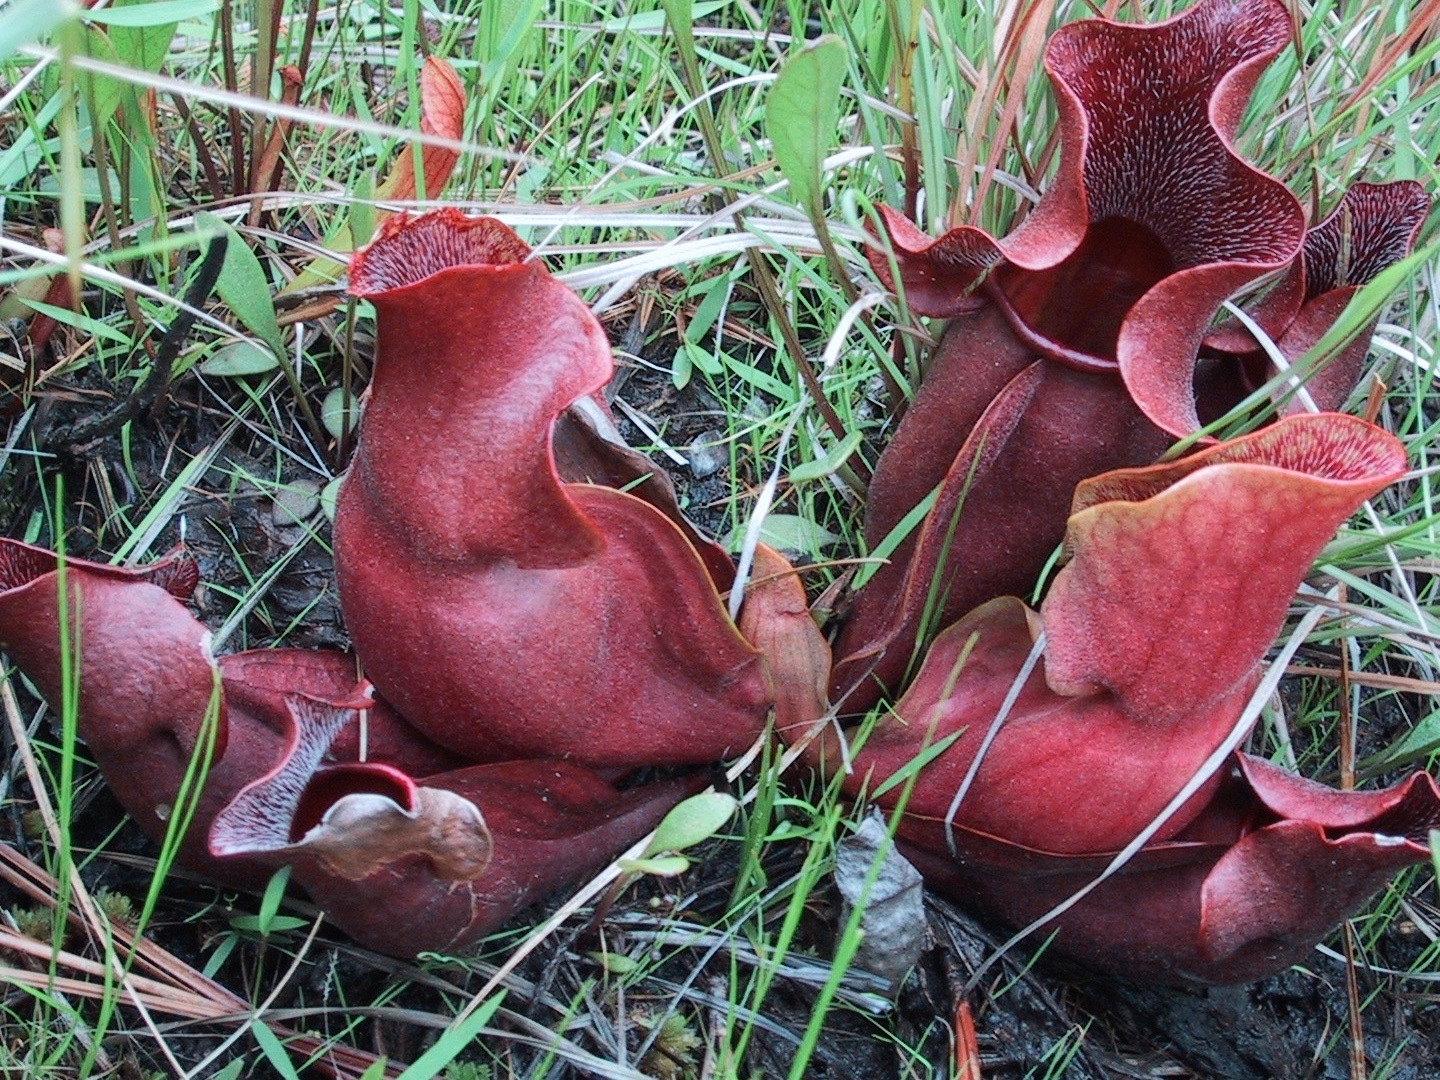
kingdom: Plantae
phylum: Tracheophyta
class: Magnoliopsida
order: Ericales
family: Sarraceniaceae
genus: Sarracenia
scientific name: Sarracenia purpurea
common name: Pitcherplant
